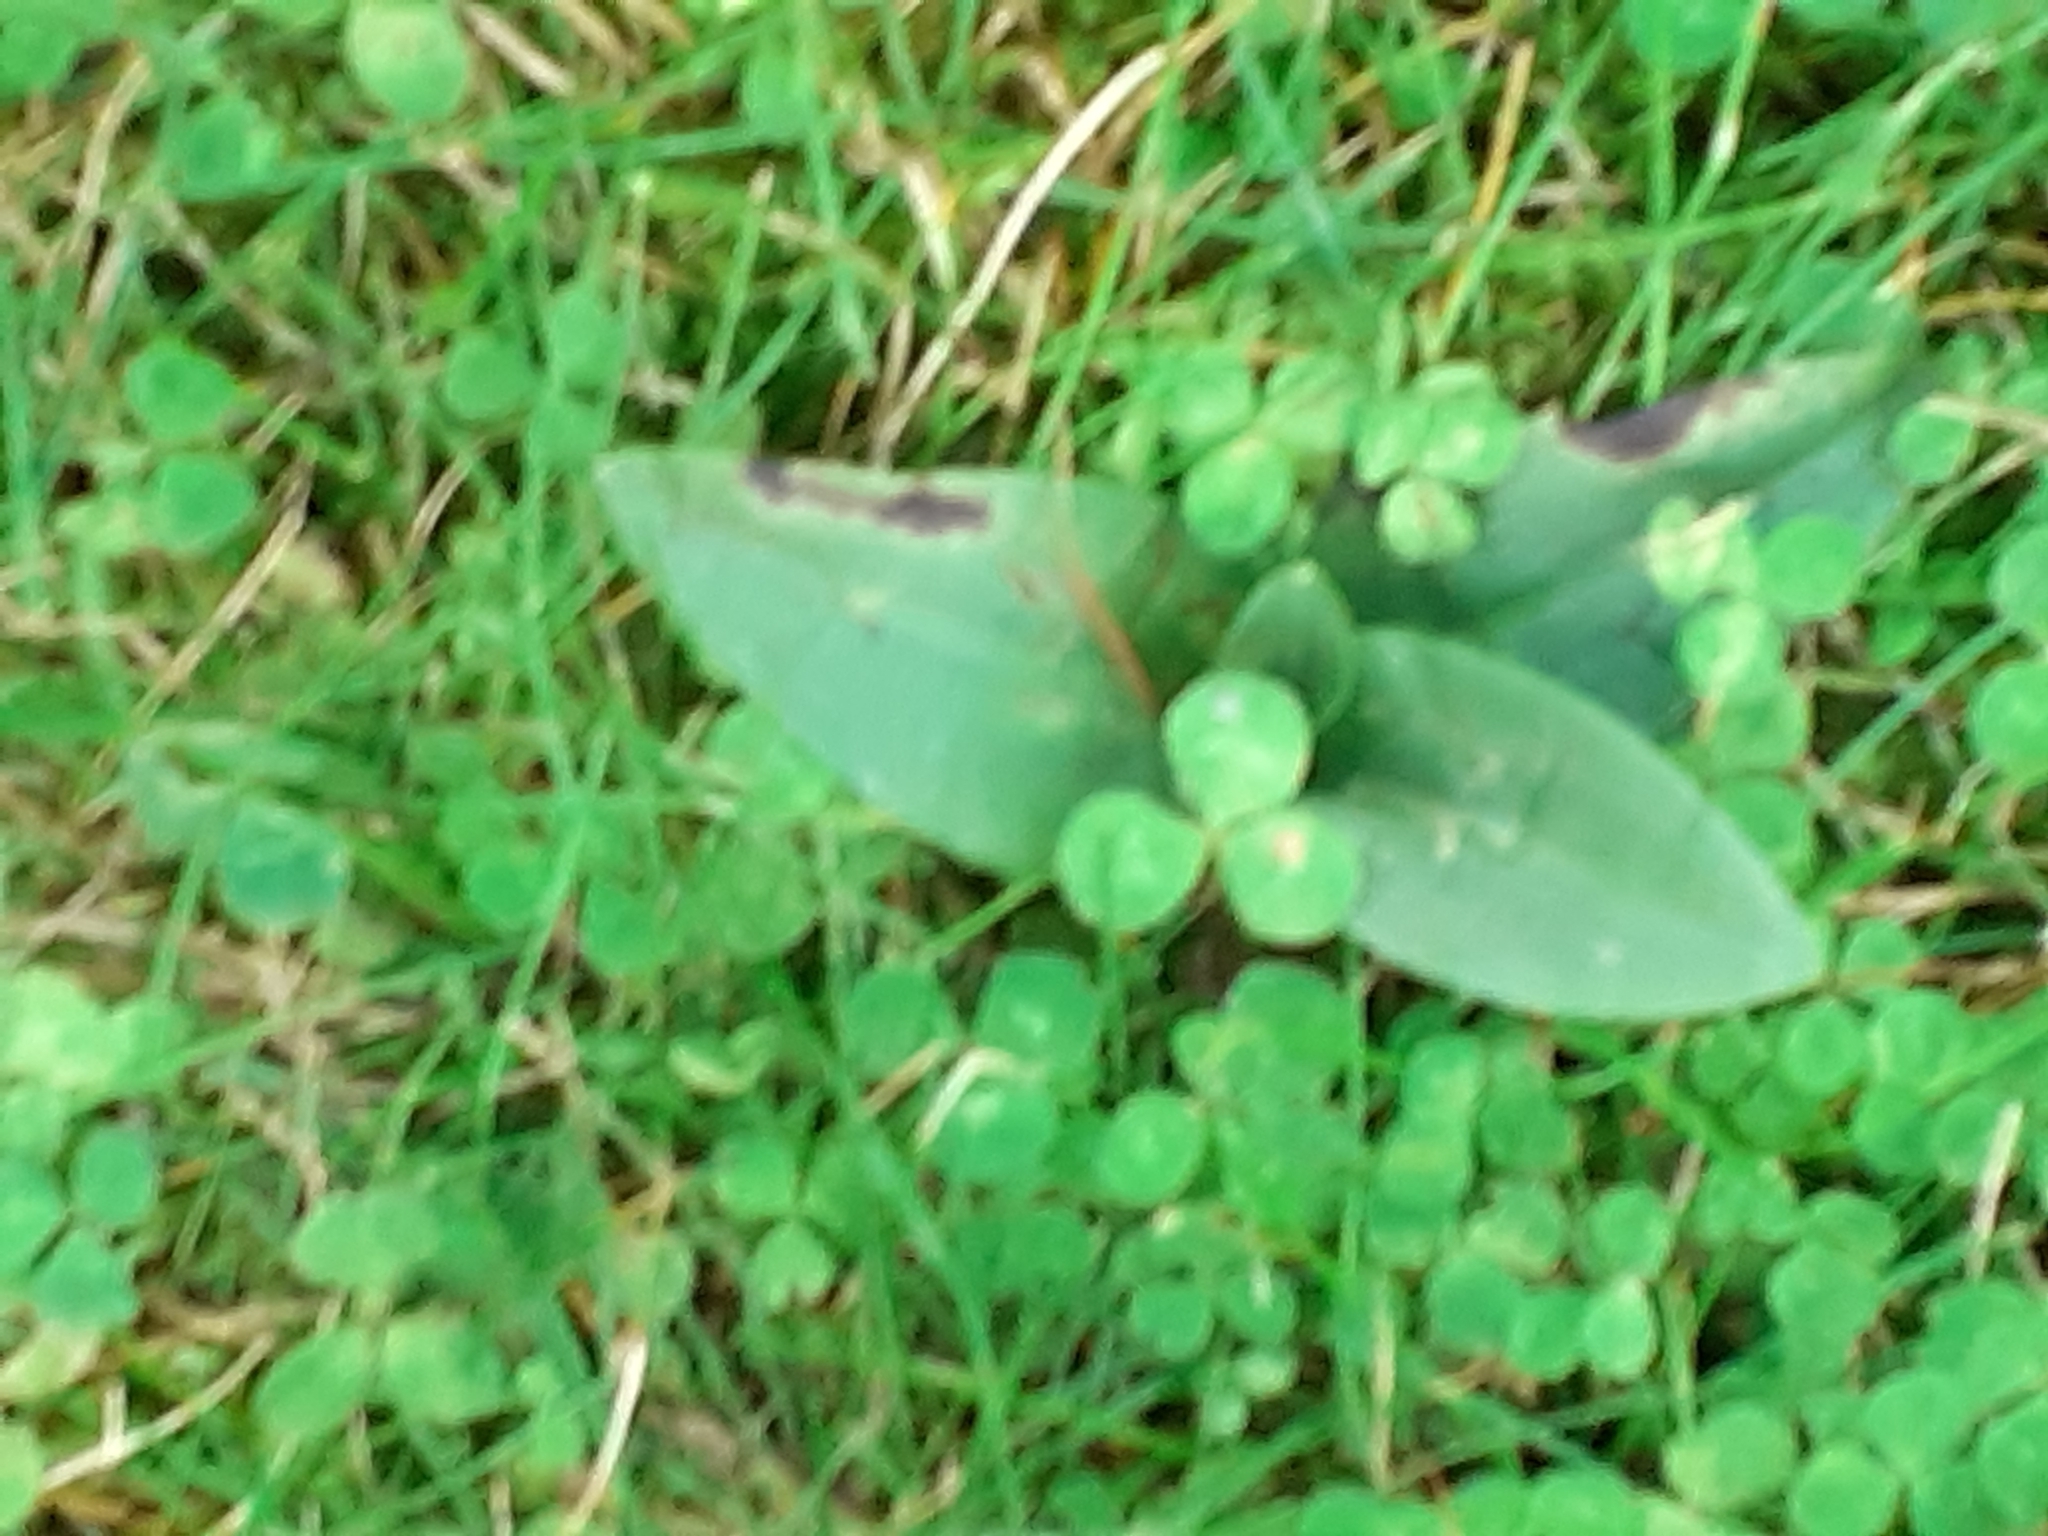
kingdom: Plantae
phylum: Tracheophyta
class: Liliopsida
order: Asparagales
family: Orchidaceae
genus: Ophrys
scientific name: Ophrys apifera
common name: Bee orchid
